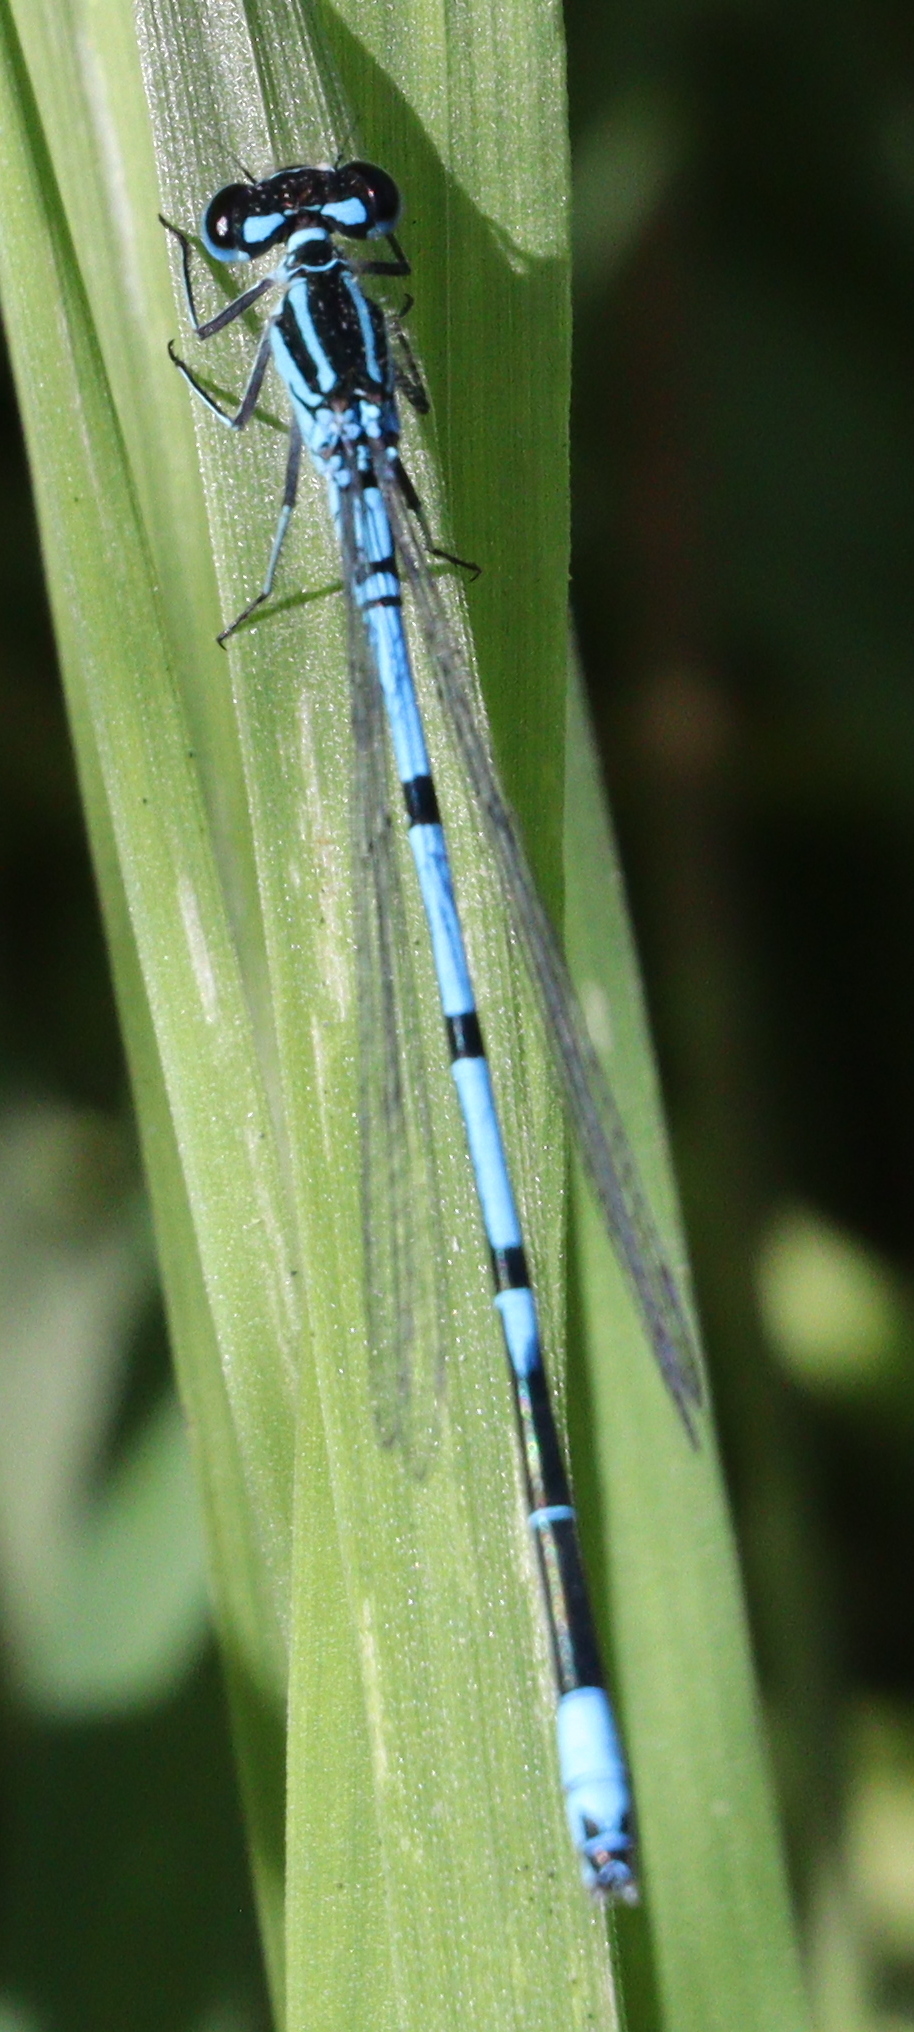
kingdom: Animalia
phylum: Arthropoda
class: Insecta
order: Odonata
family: Coenagrionidae
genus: Coenagrion
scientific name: Coenagrion puella
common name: Azure damselfly
